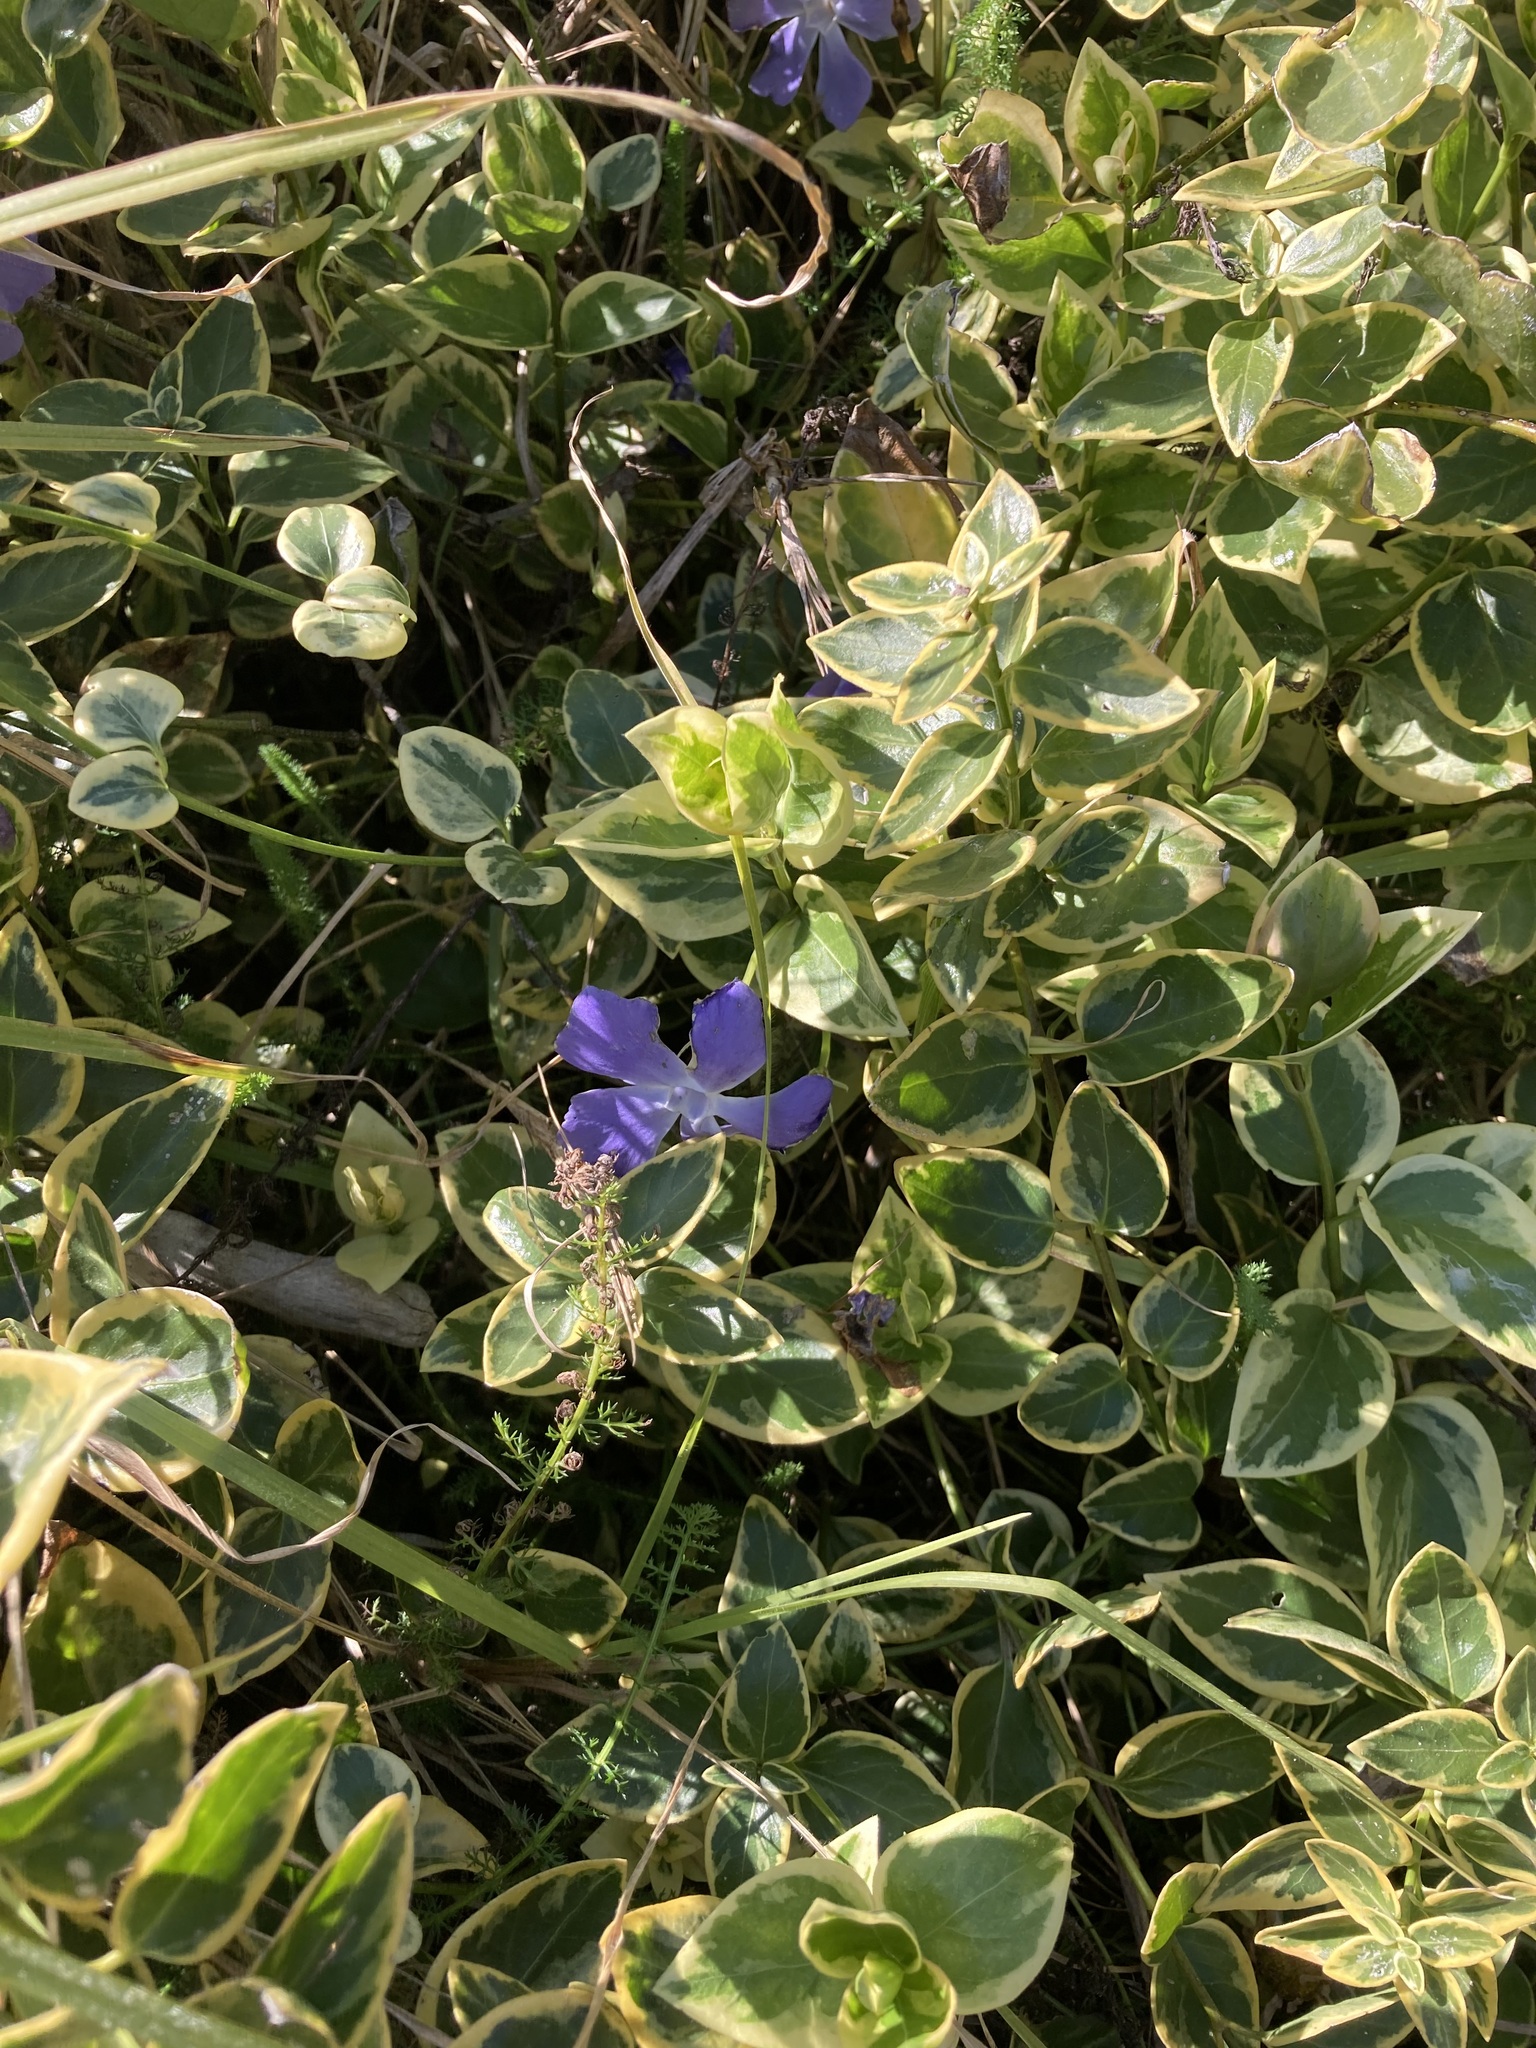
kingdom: Plantae
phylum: Tracheophyta
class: Magnoliopsida
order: Gentianales
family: Apocynaceae
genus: Vinca
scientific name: Vinca major
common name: Greater periwinkle
